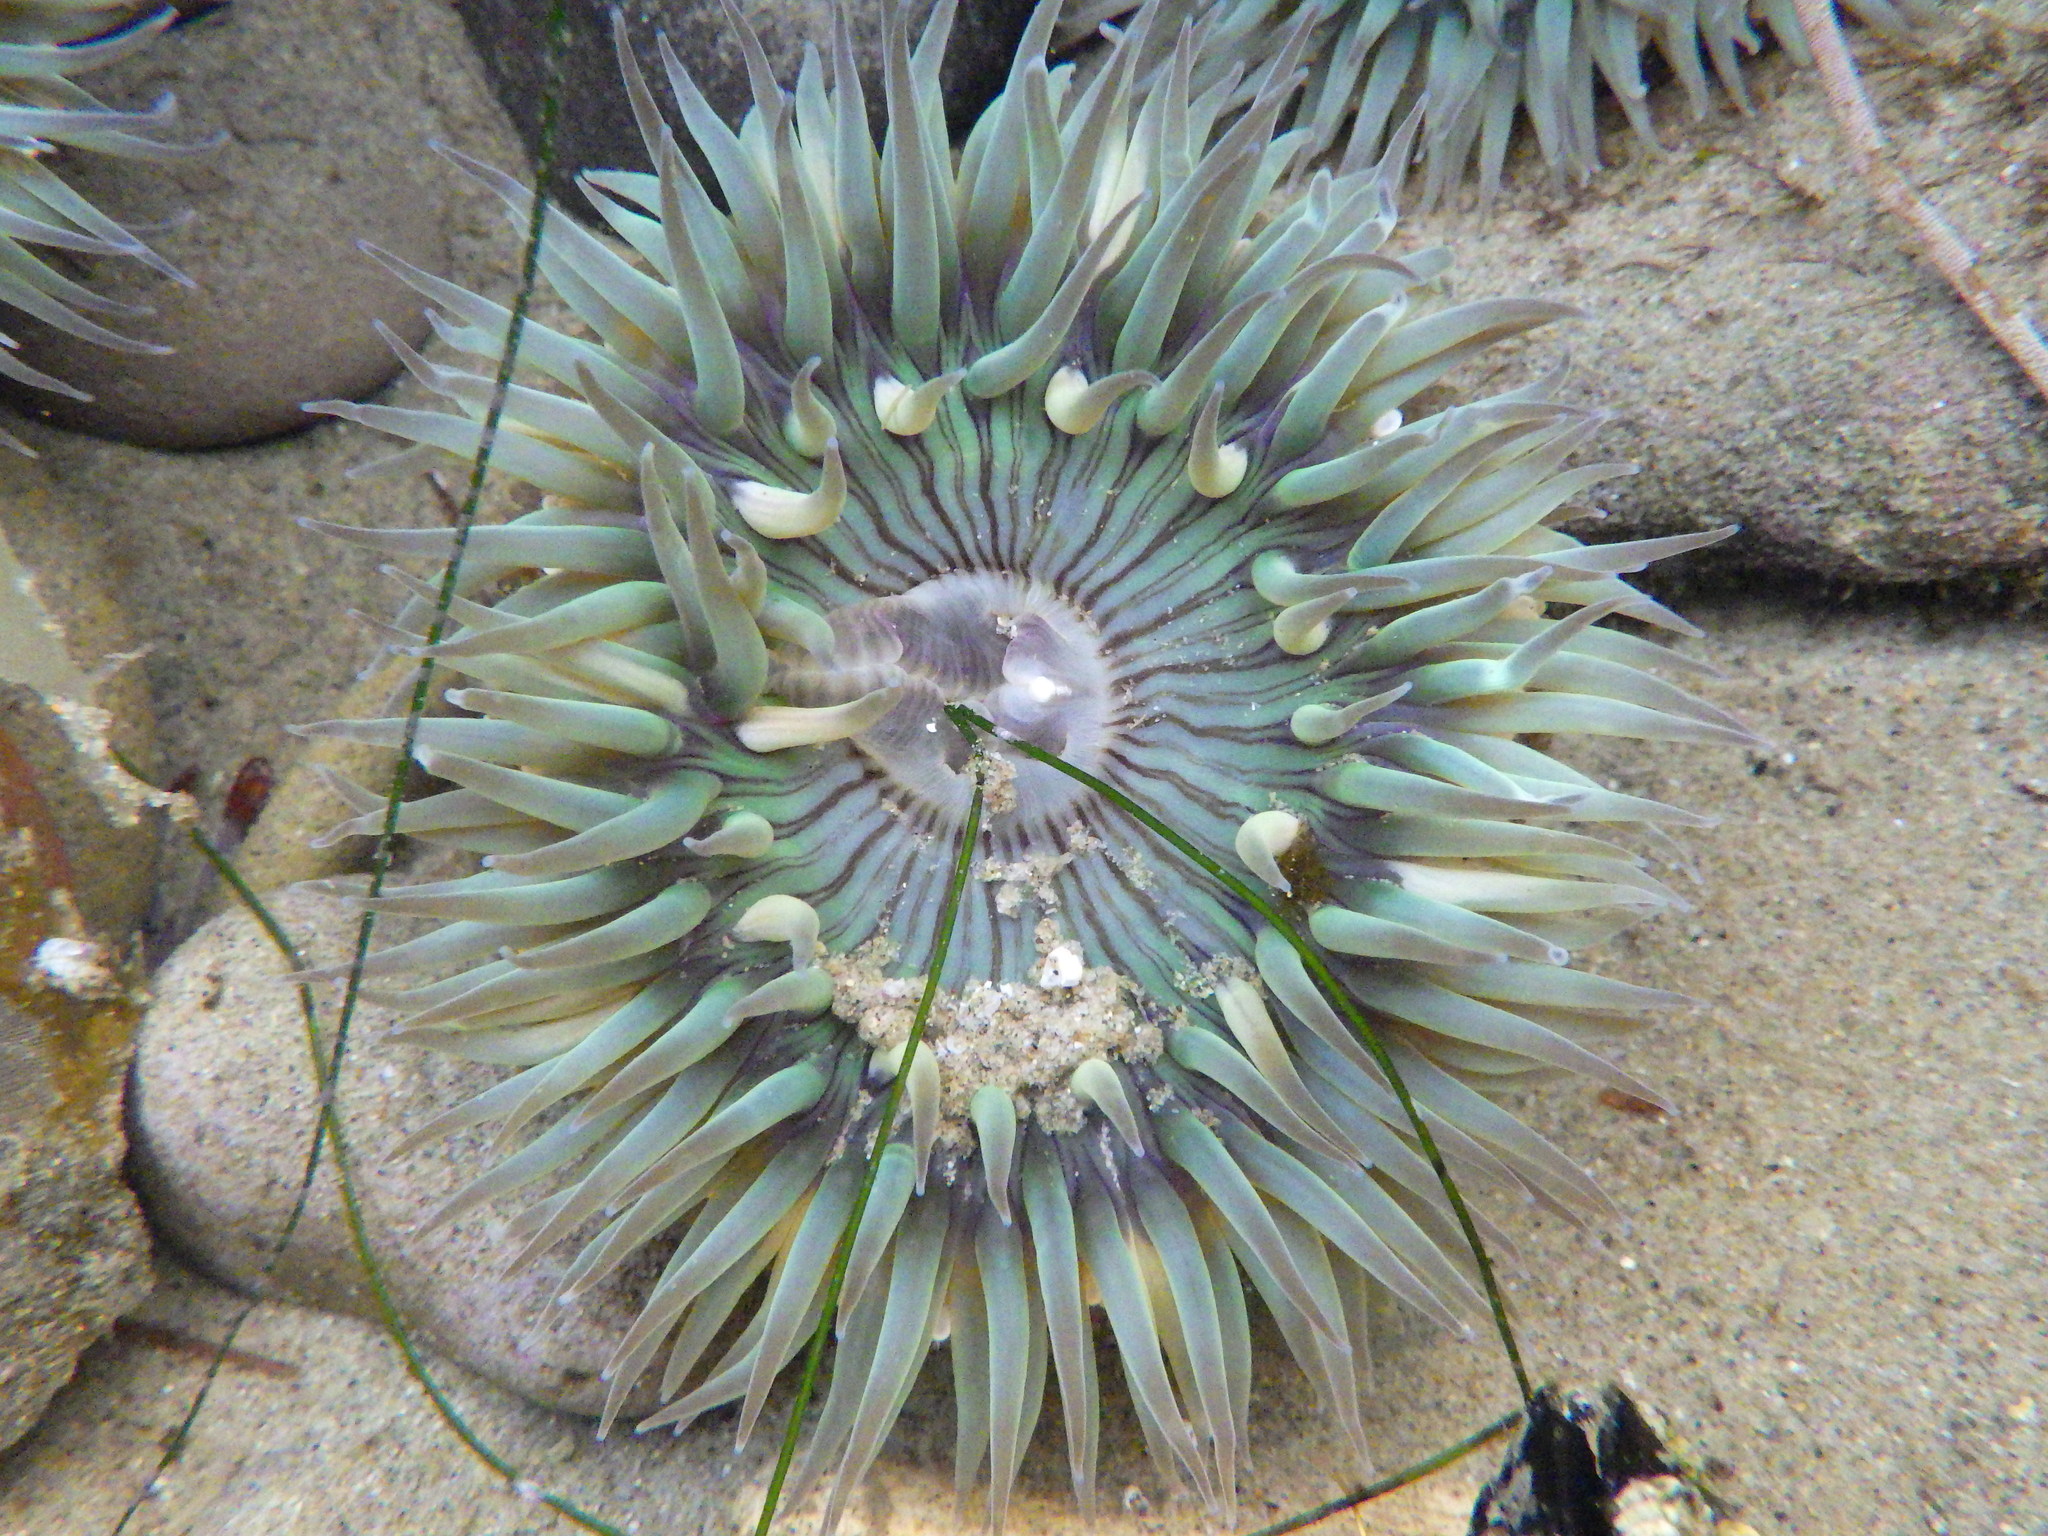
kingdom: Animalia
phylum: Cnidaria
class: Anthozoa
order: Actiniaria
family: Actiniidae
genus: Anthopleura
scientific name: Anthopleura sola
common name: Sun anemone
